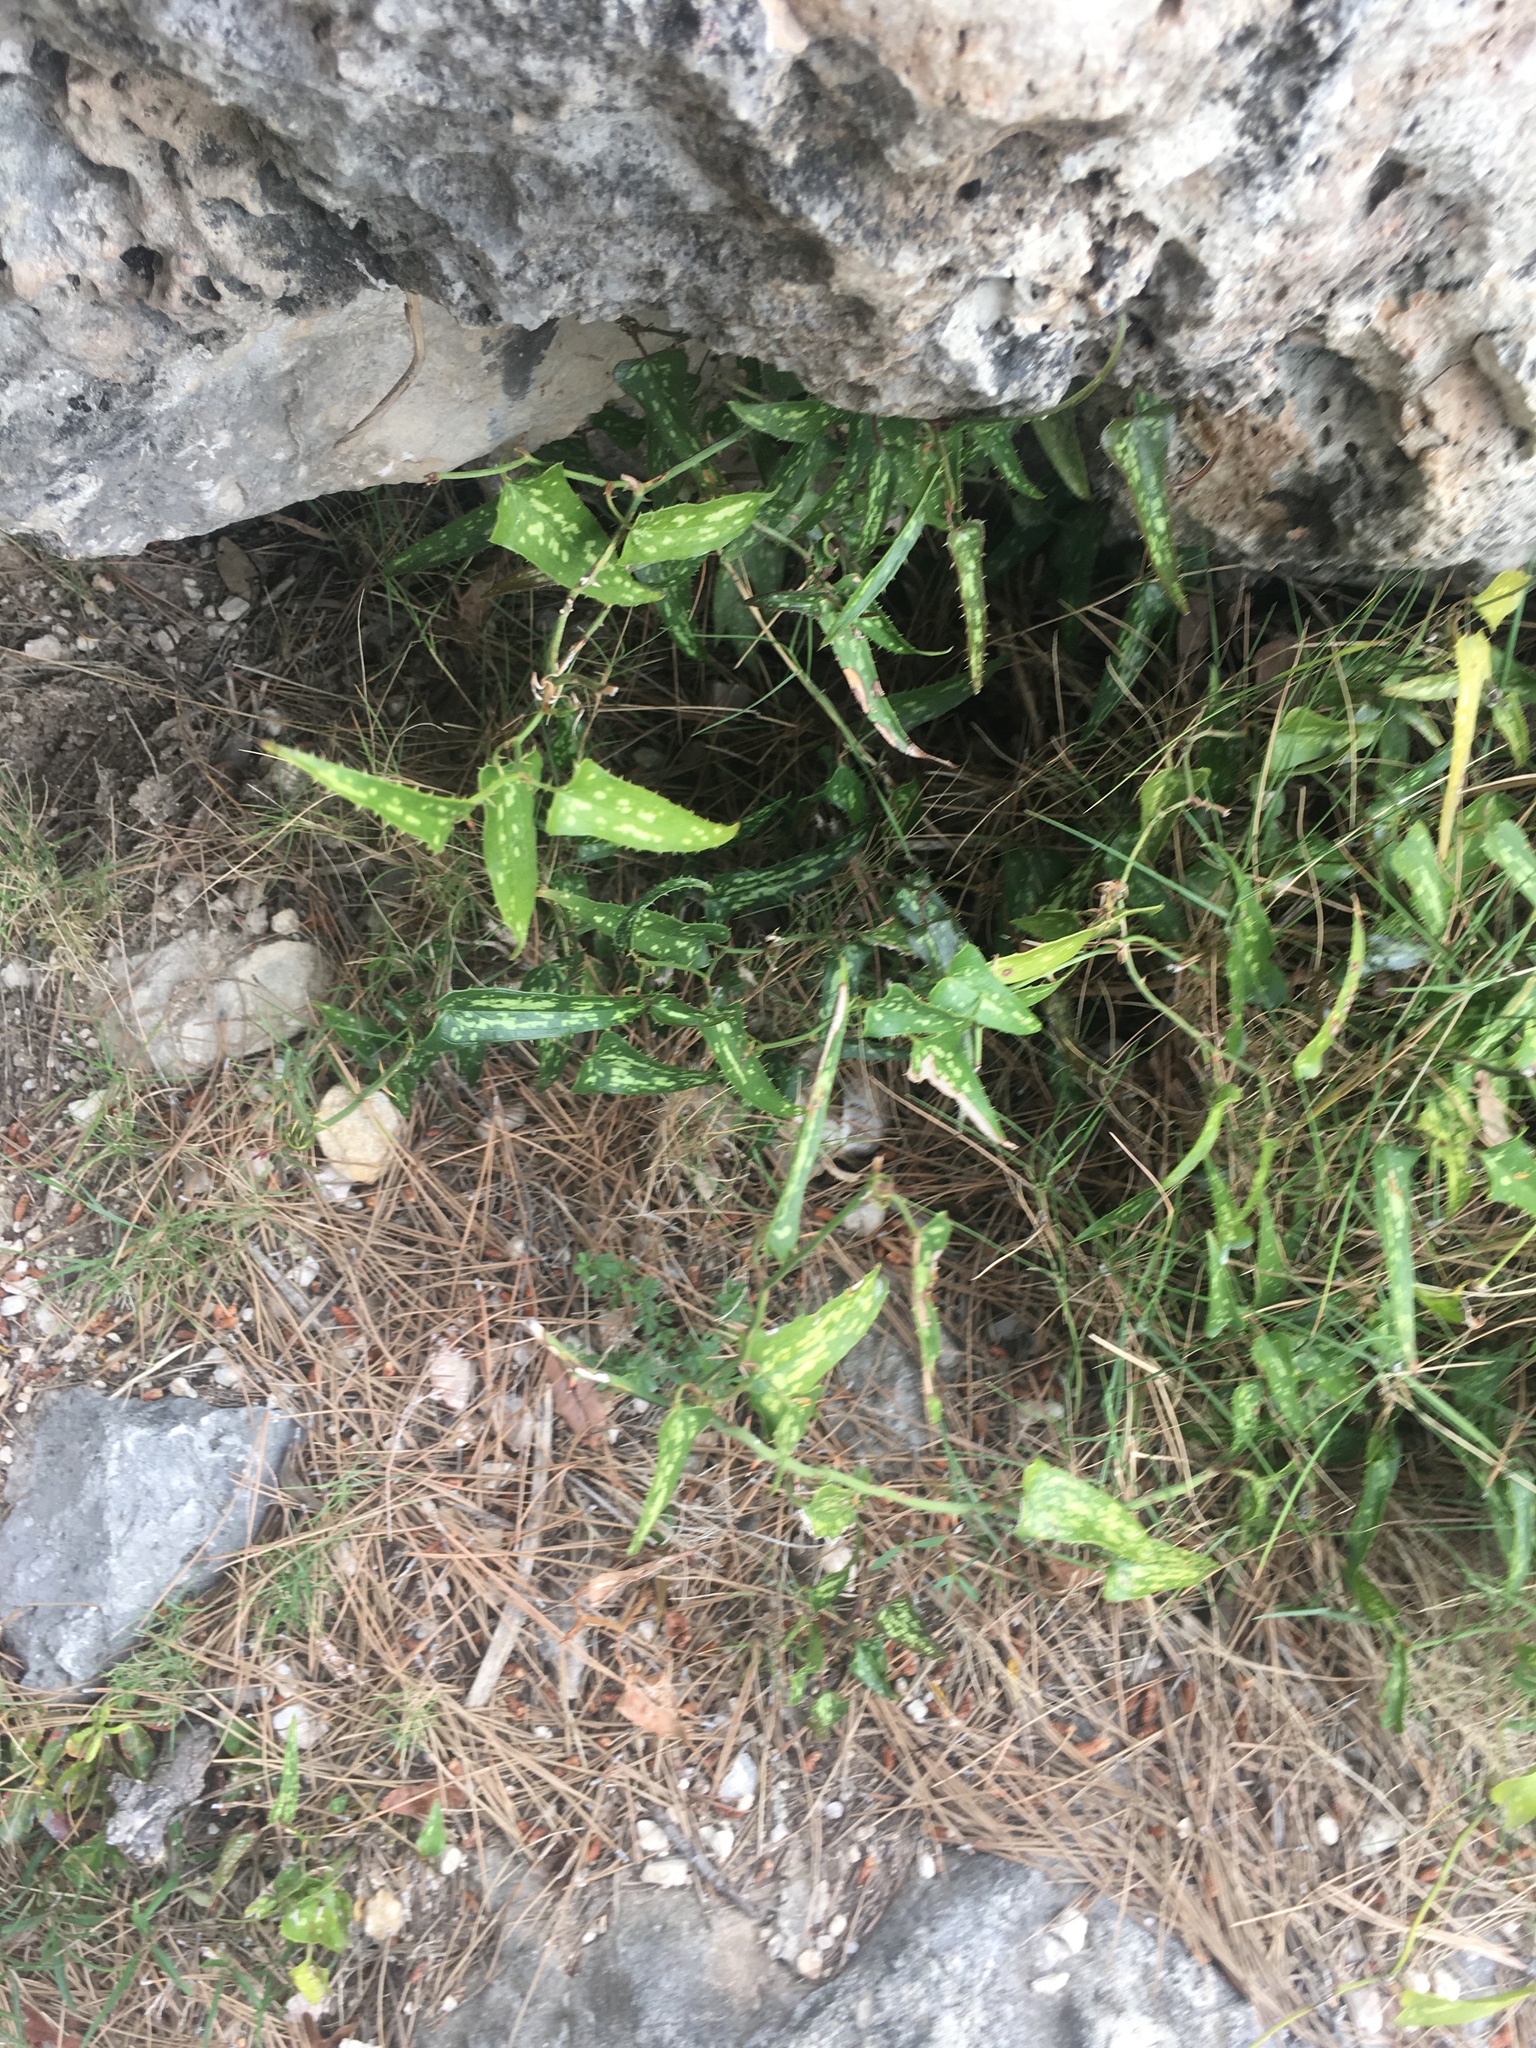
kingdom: Plantae
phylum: Tracheophyta
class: Liliopsida
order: Liliales
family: Smilacaceae
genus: Smilax
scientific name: Smilax aspera
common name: Common smilax
